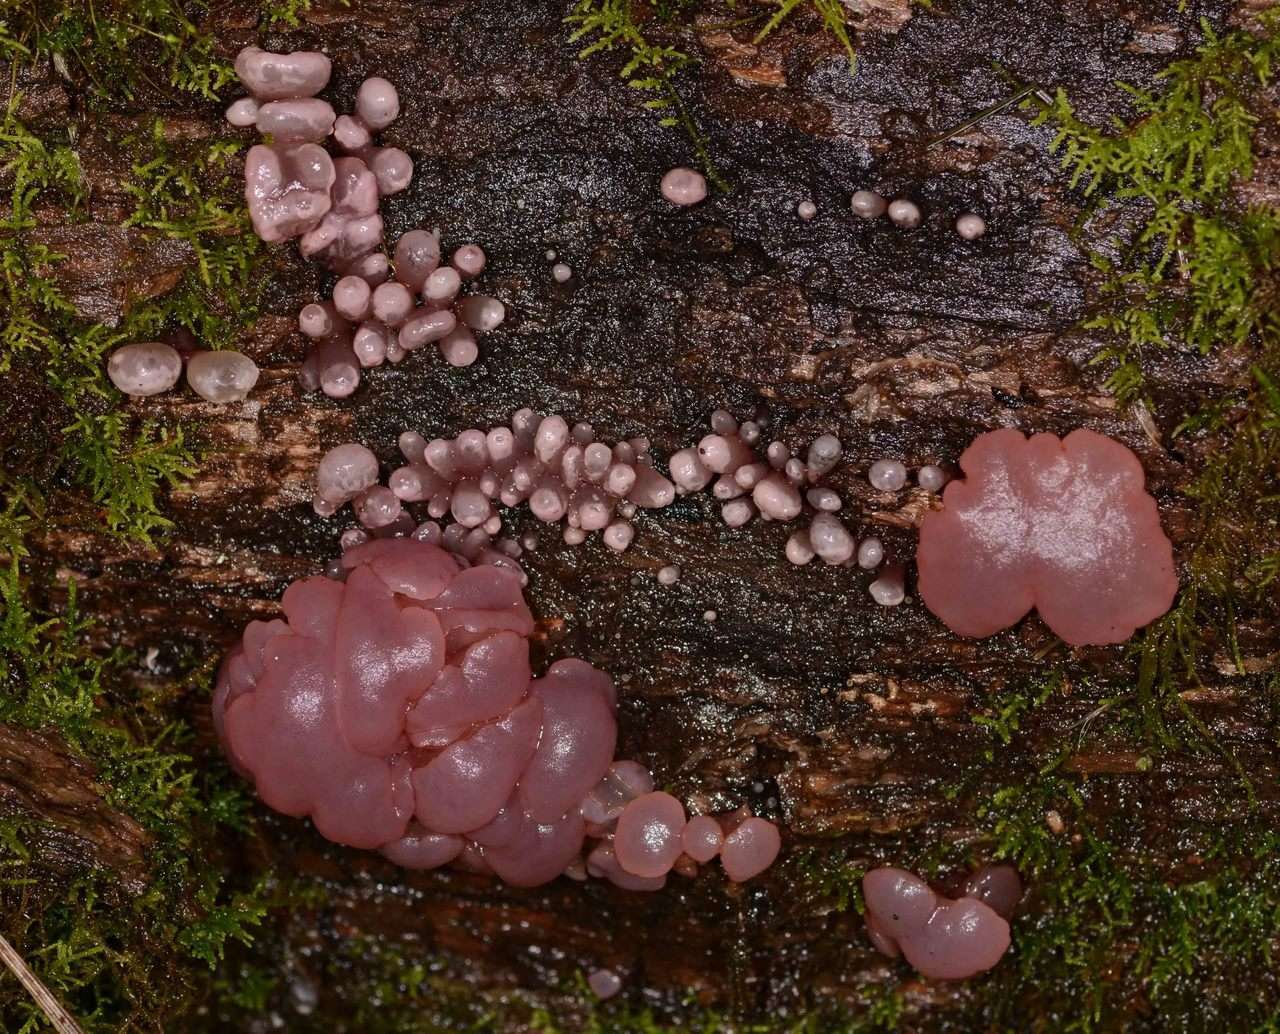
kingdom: Fungi
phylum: Ascomycota
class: Leotiomycetes
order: Helotiales
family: Gelatinodiscaceae
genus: Ascocoryne
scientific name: Ascocoryne sarcoides
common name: Purple jellydisc
